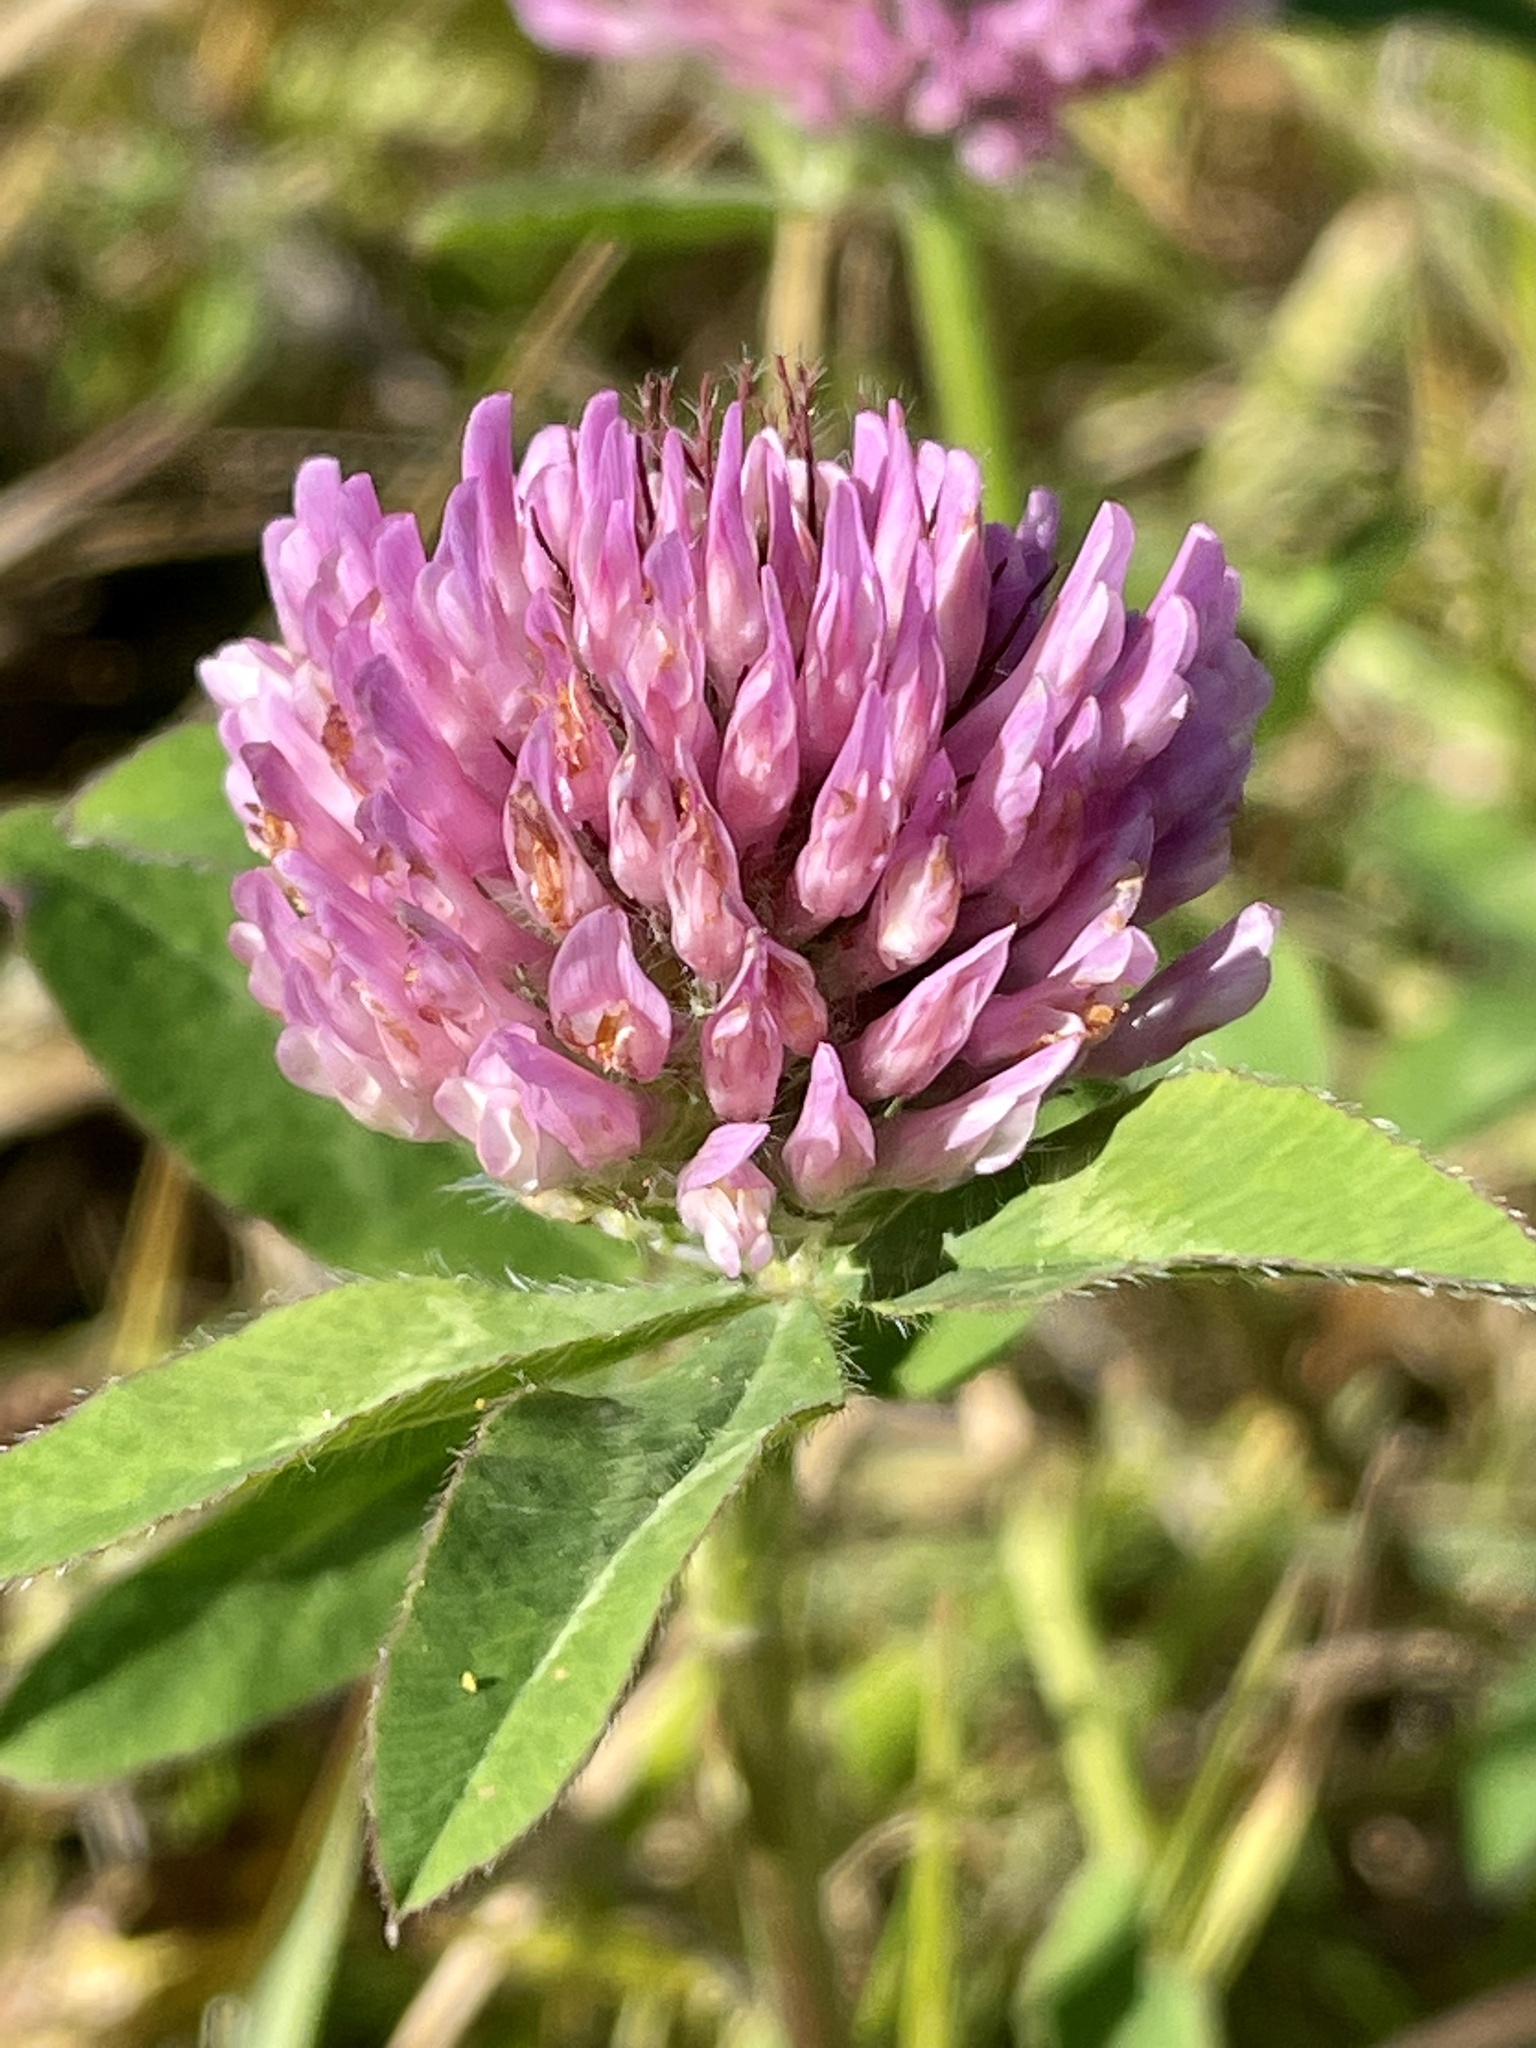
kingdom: Plantae
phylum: Tracheophyta
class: Magnoliopsida
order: Fabales
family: Fabaceae
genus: Trifolium
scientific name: Trifolium pratense
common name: Red clover
